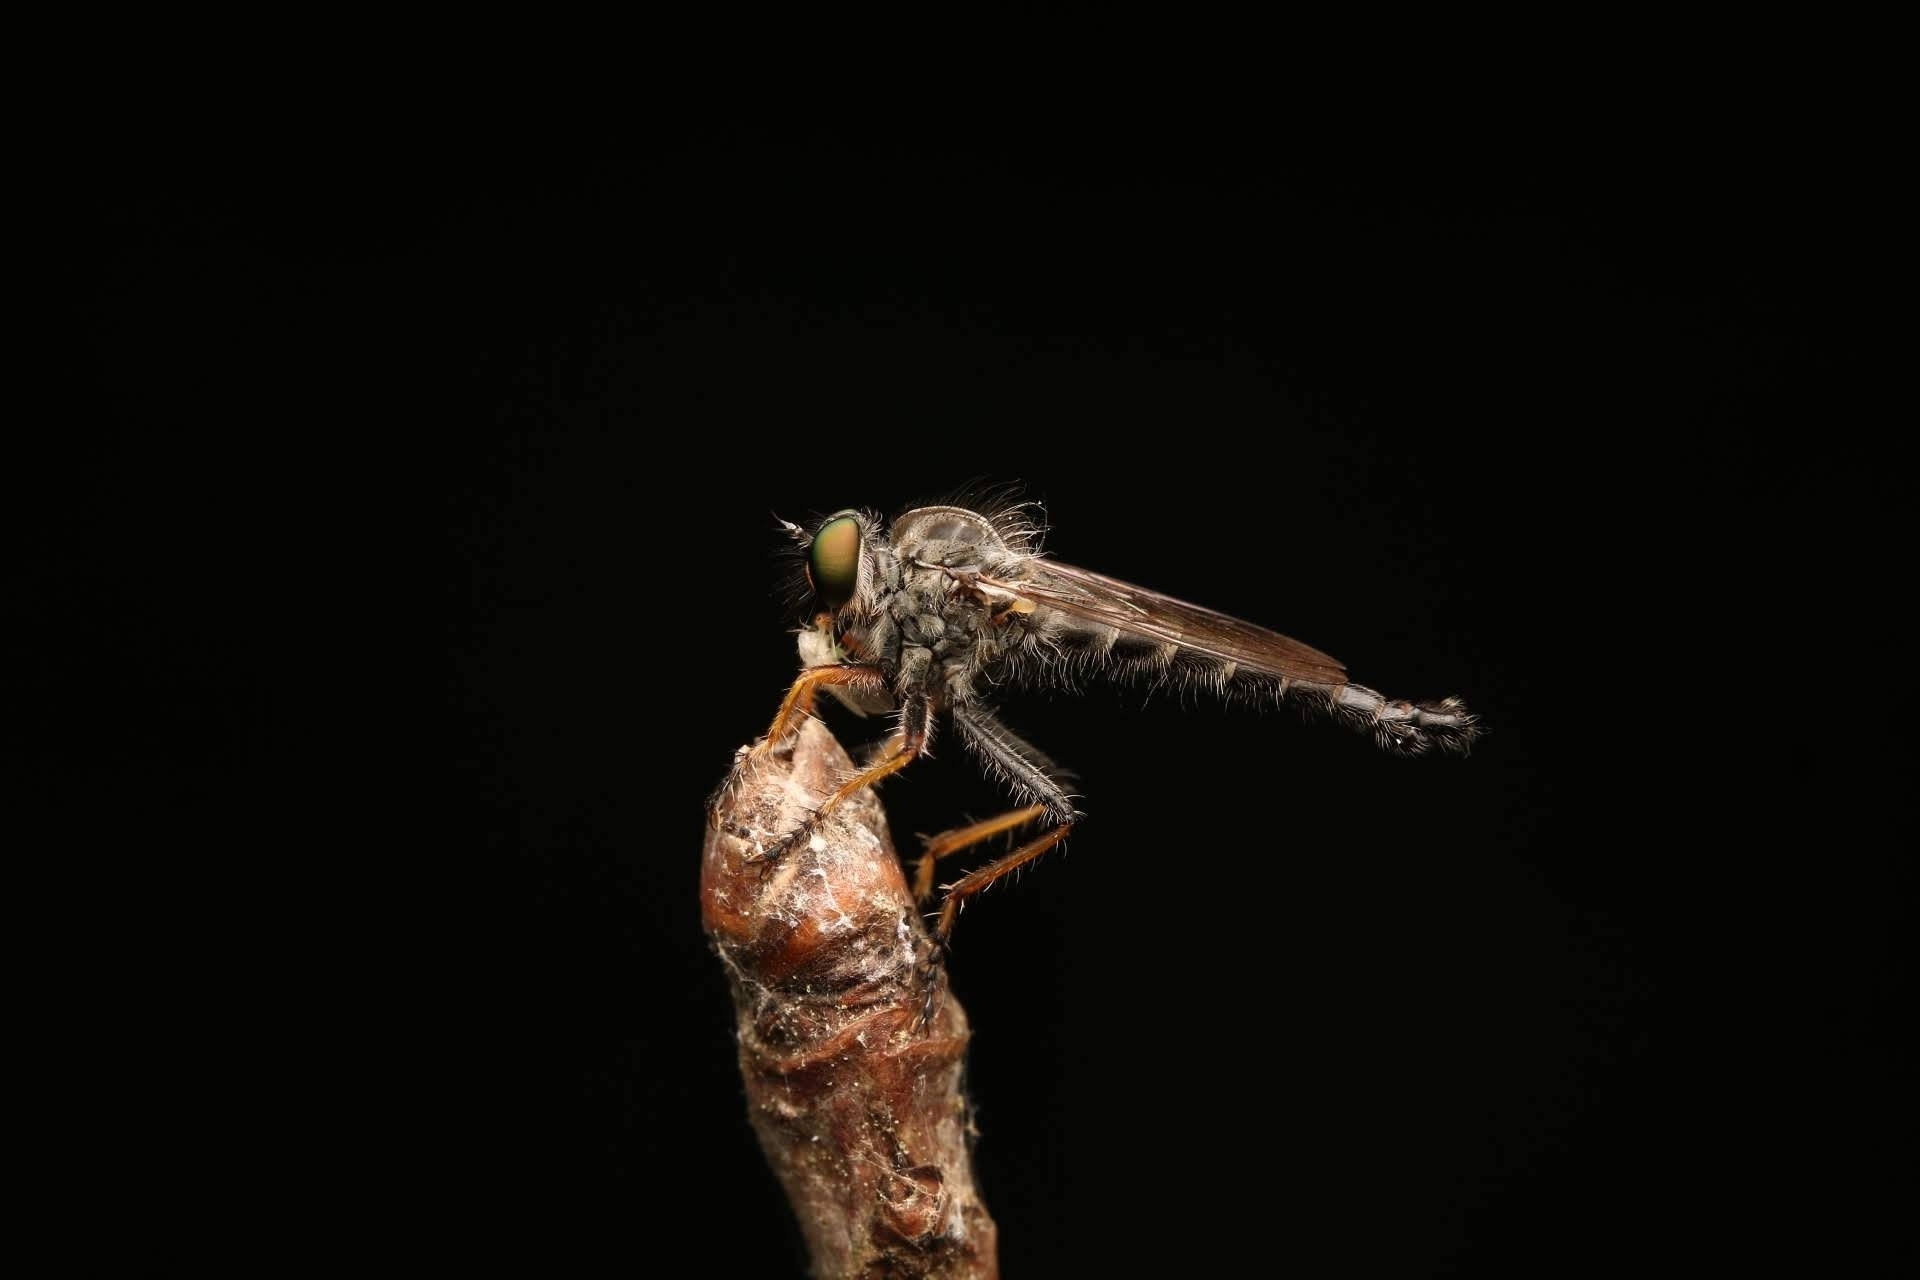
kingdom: Animalia
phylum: Arthropoda
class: Insecta
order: Diptera
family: Asilidae
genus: Asilus
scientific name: Asilus flavofemoratus
